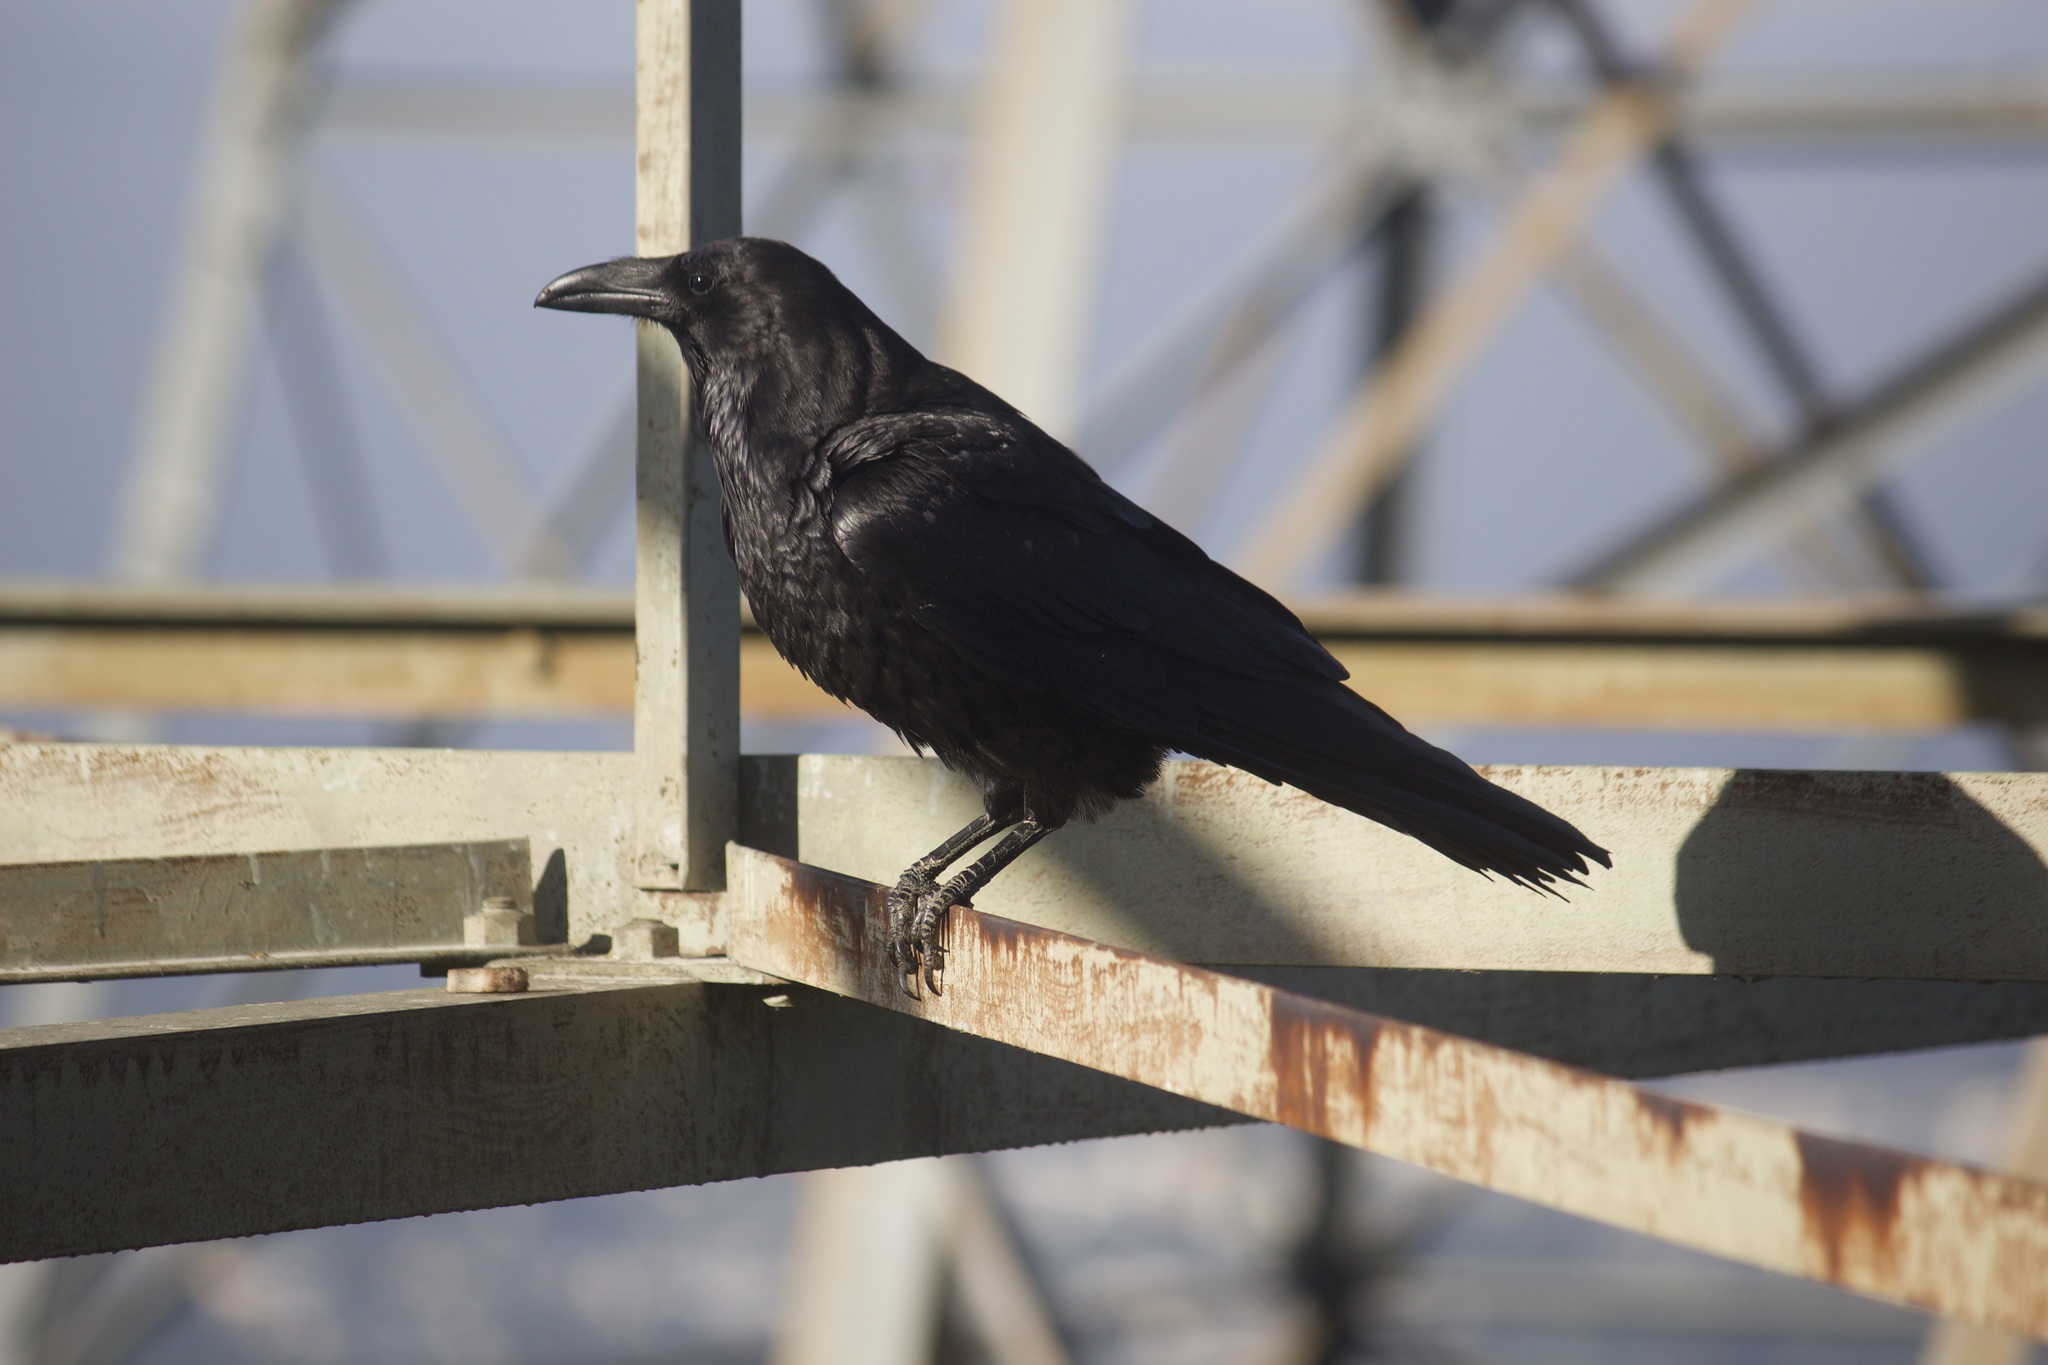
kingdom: Animalia
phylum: Chordata
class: Aves
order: Passeriformes
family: Corvidae
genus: Corvus
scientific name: Corvus corax
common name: Common raven
